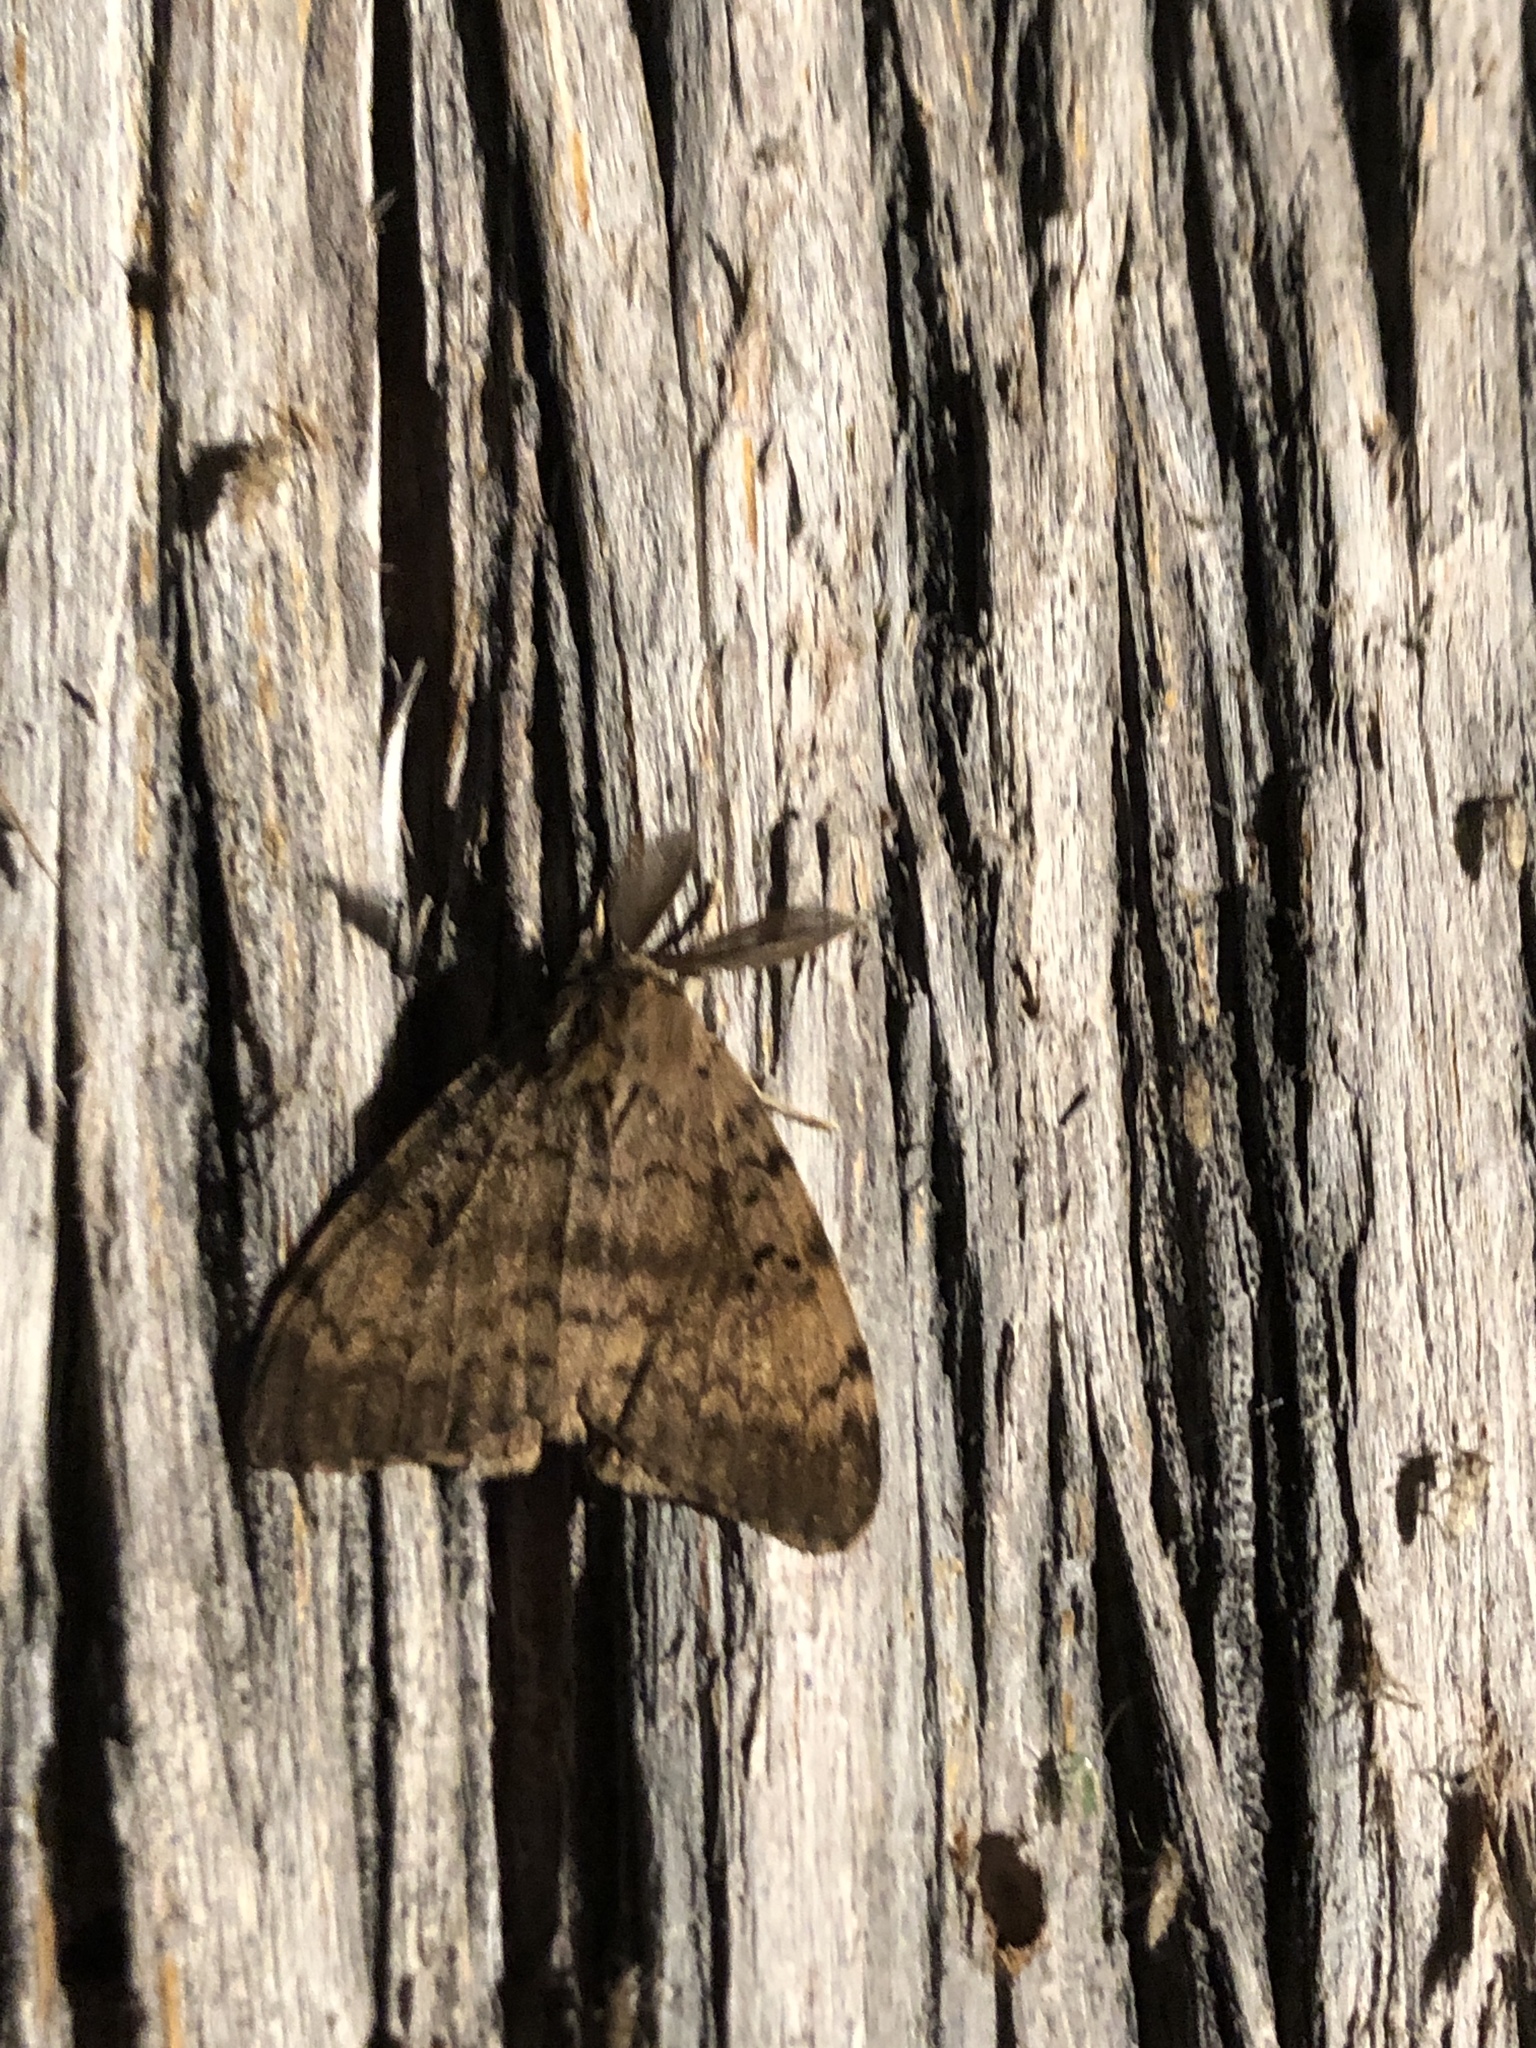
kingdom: Animalia
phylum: Arthropoda
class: Insecta
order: Lepidoptera
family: Erebidae
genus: Lymantria
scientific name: Lymantria dispar
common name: Gypsy moth
